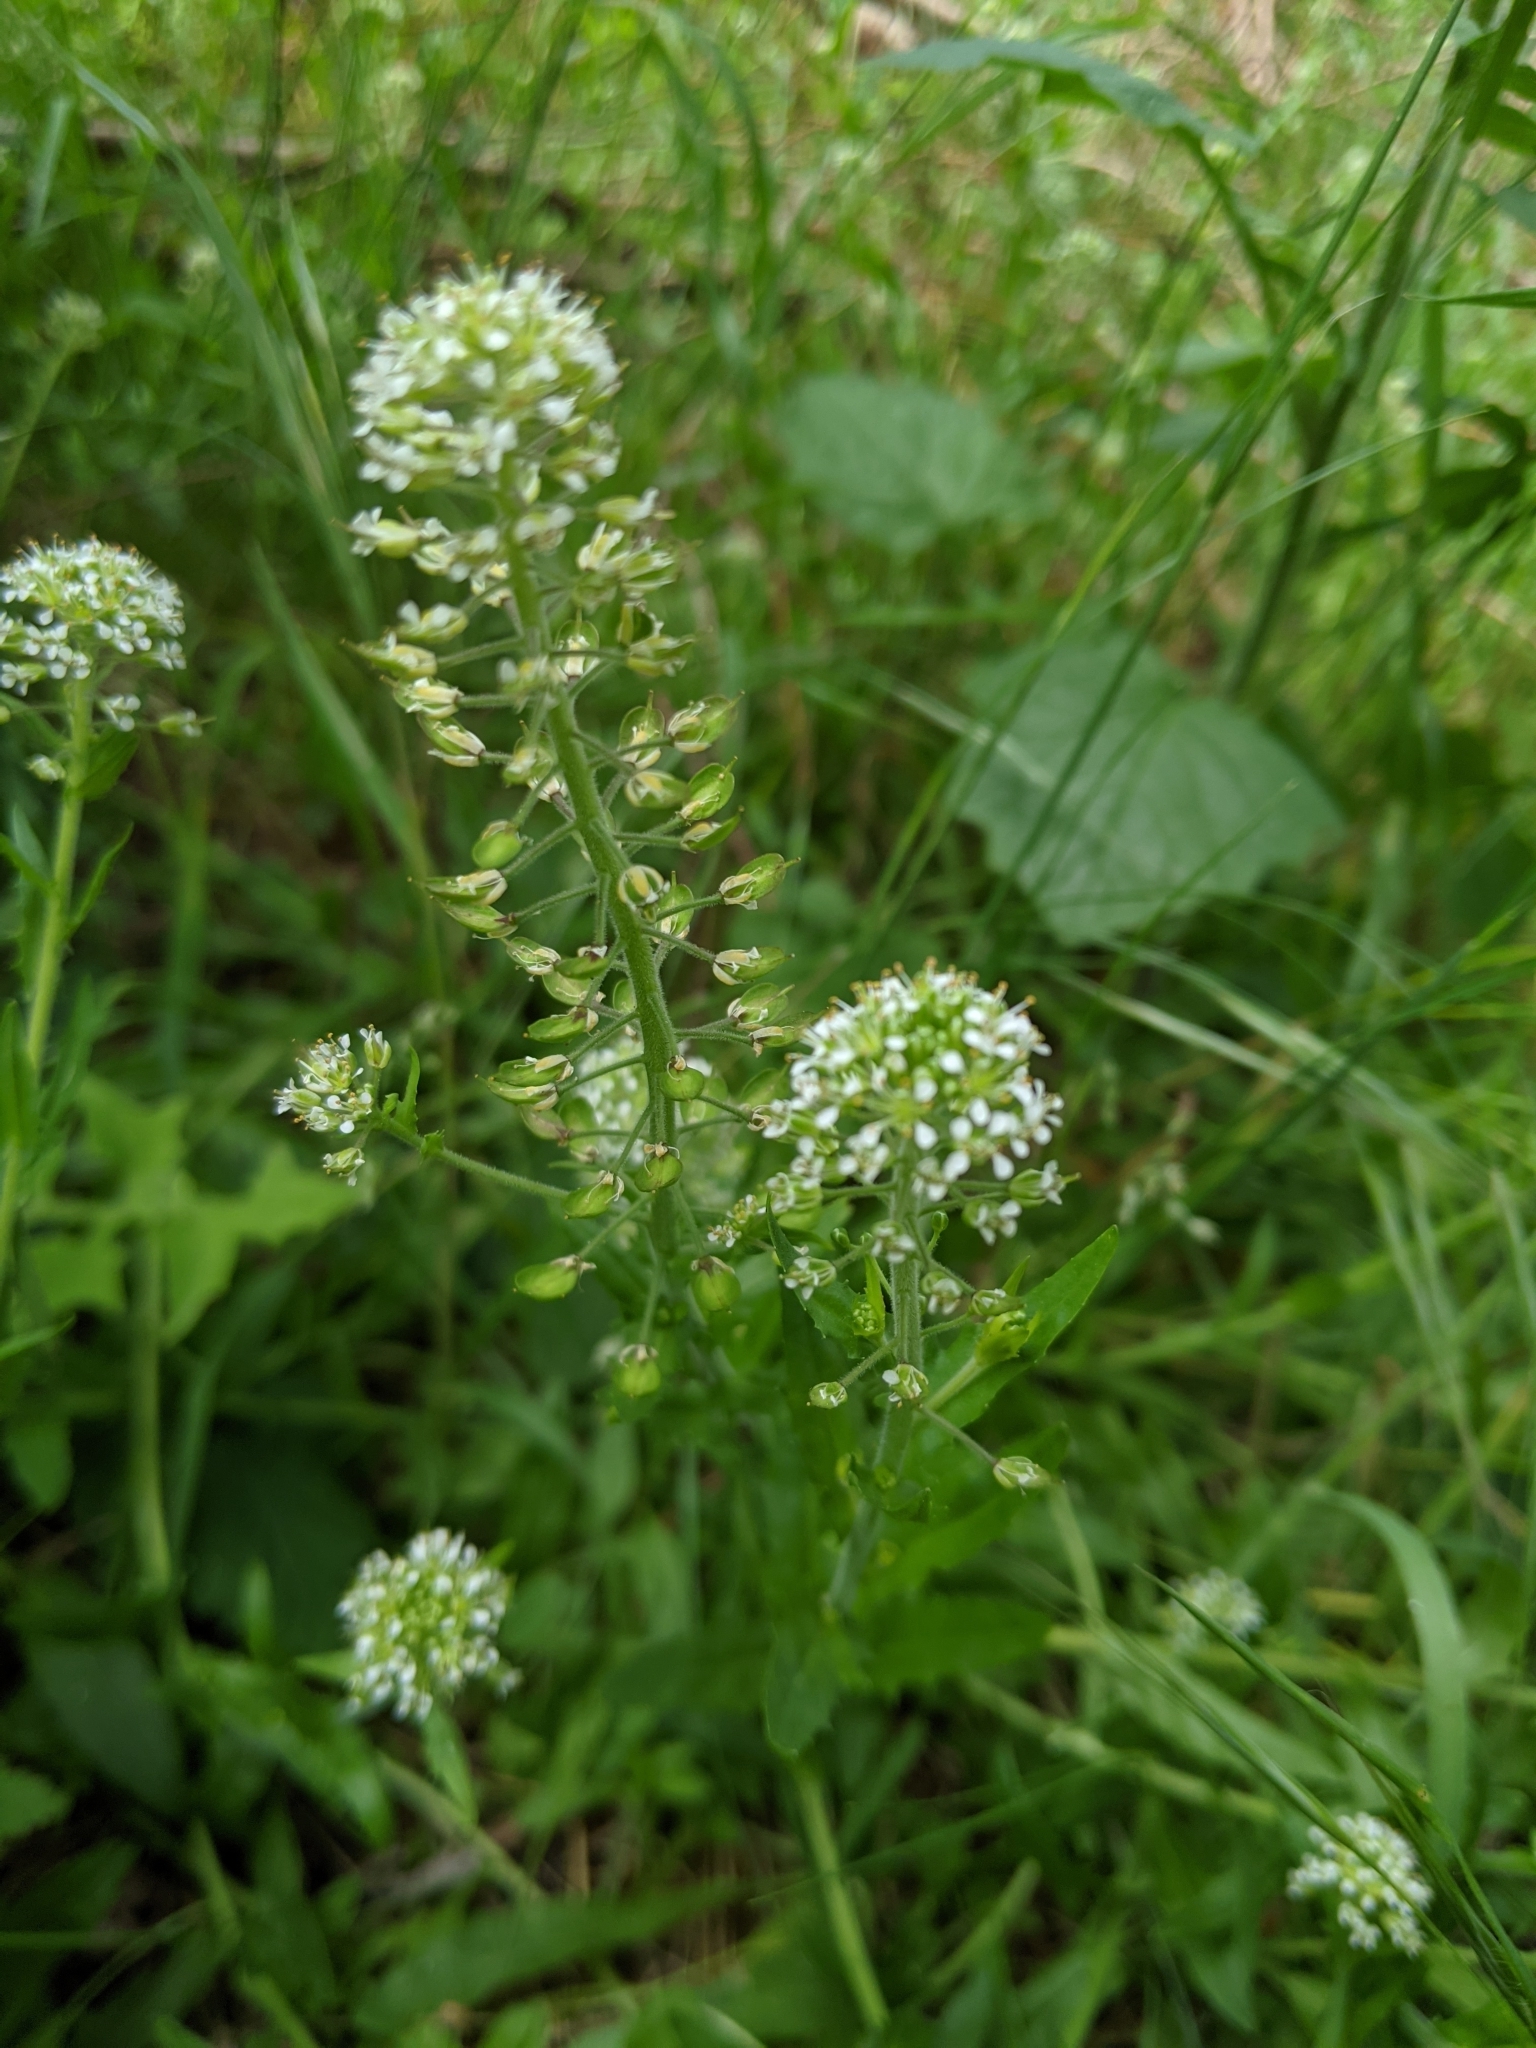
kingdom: Plantae
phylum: Tracheophyta
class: Magnoliopsida
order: Brassicales
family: Brassicaceae
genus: Lepidium
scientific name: Lepidium campestre
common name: Field pepperwort
